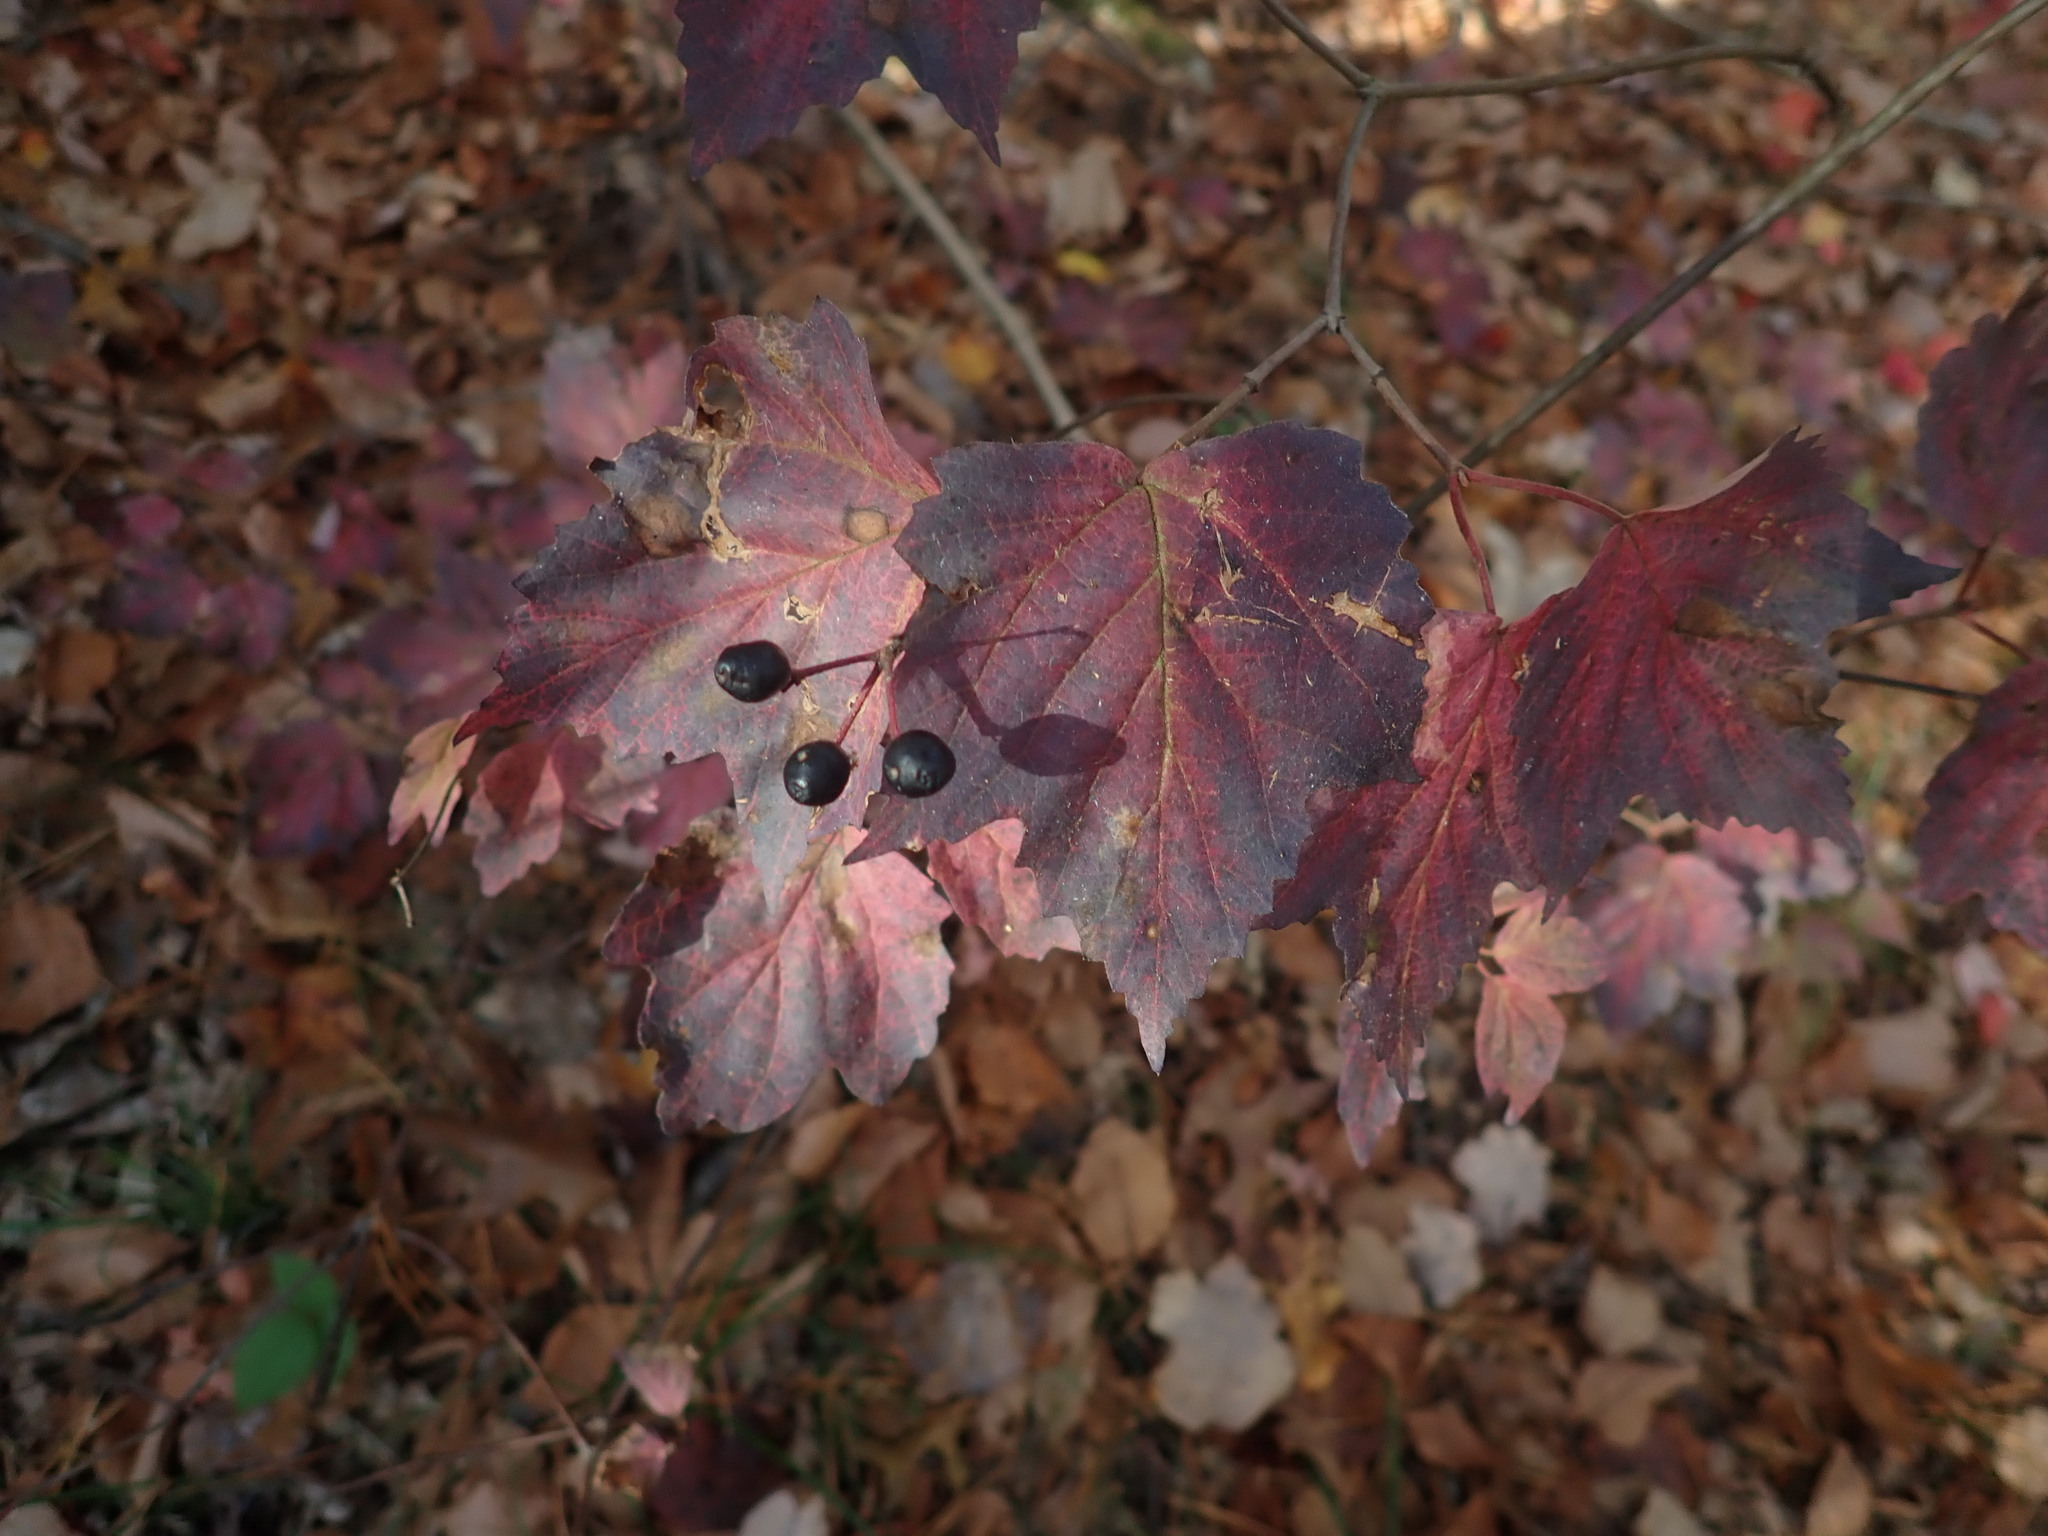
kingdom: Plantae
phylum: Tracheophyta
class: Magnoliopsida
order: Dipsacales
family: Viburnaceae
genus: Viburnum
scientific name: Viburnum acerifolium
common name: Dockmackie
